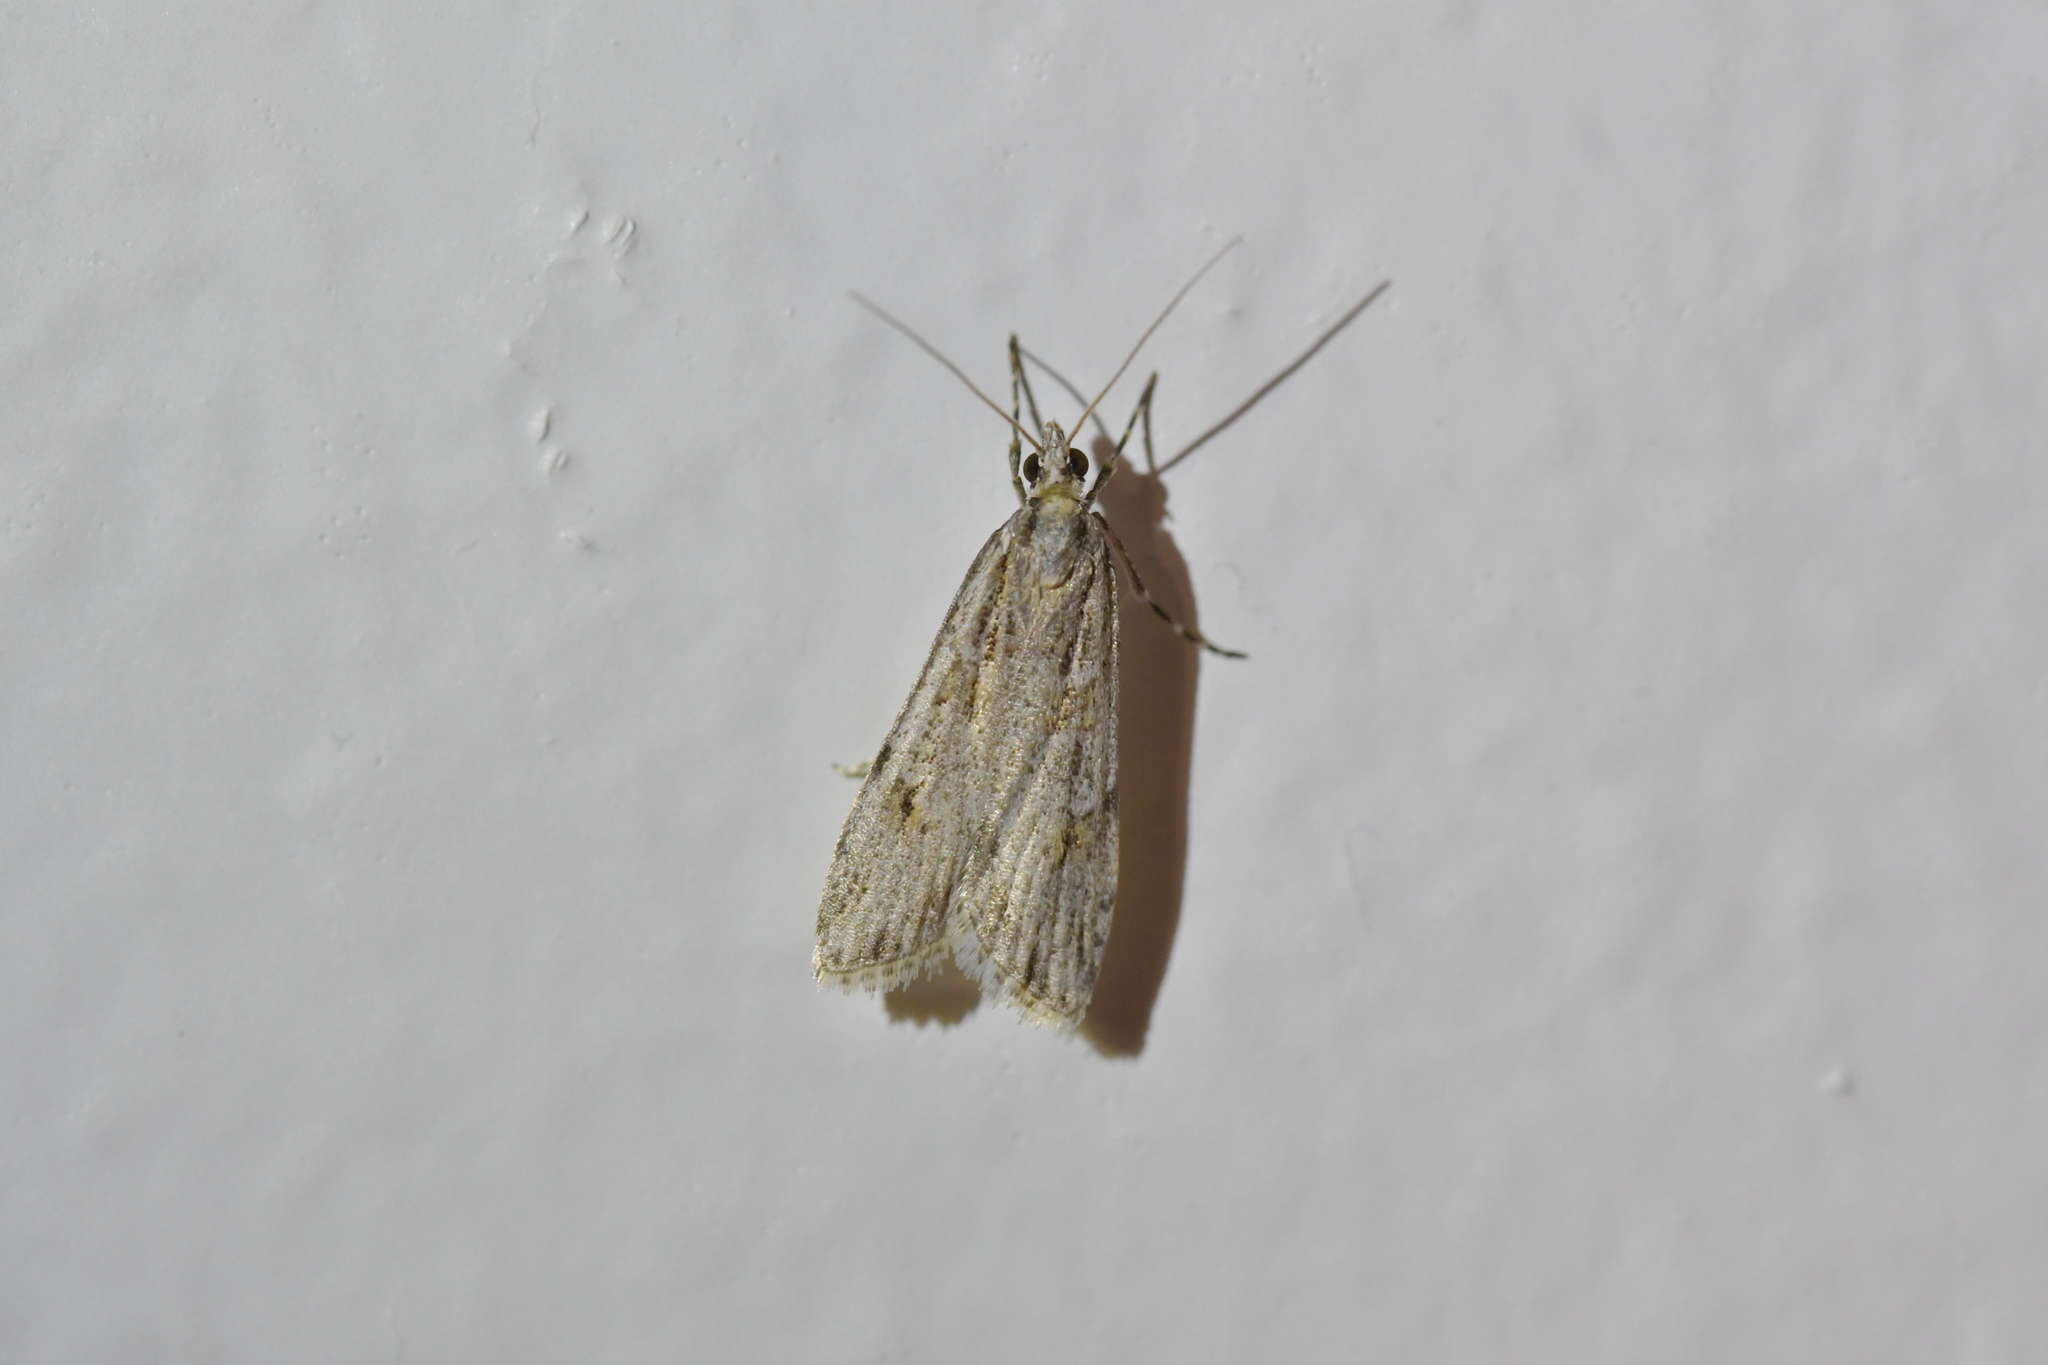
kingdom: Animalia
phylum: Arthropoda
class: Insecta
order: Lepidoptera
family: Crambidae
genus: Scoparia
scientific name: Scoparia chalicodes
